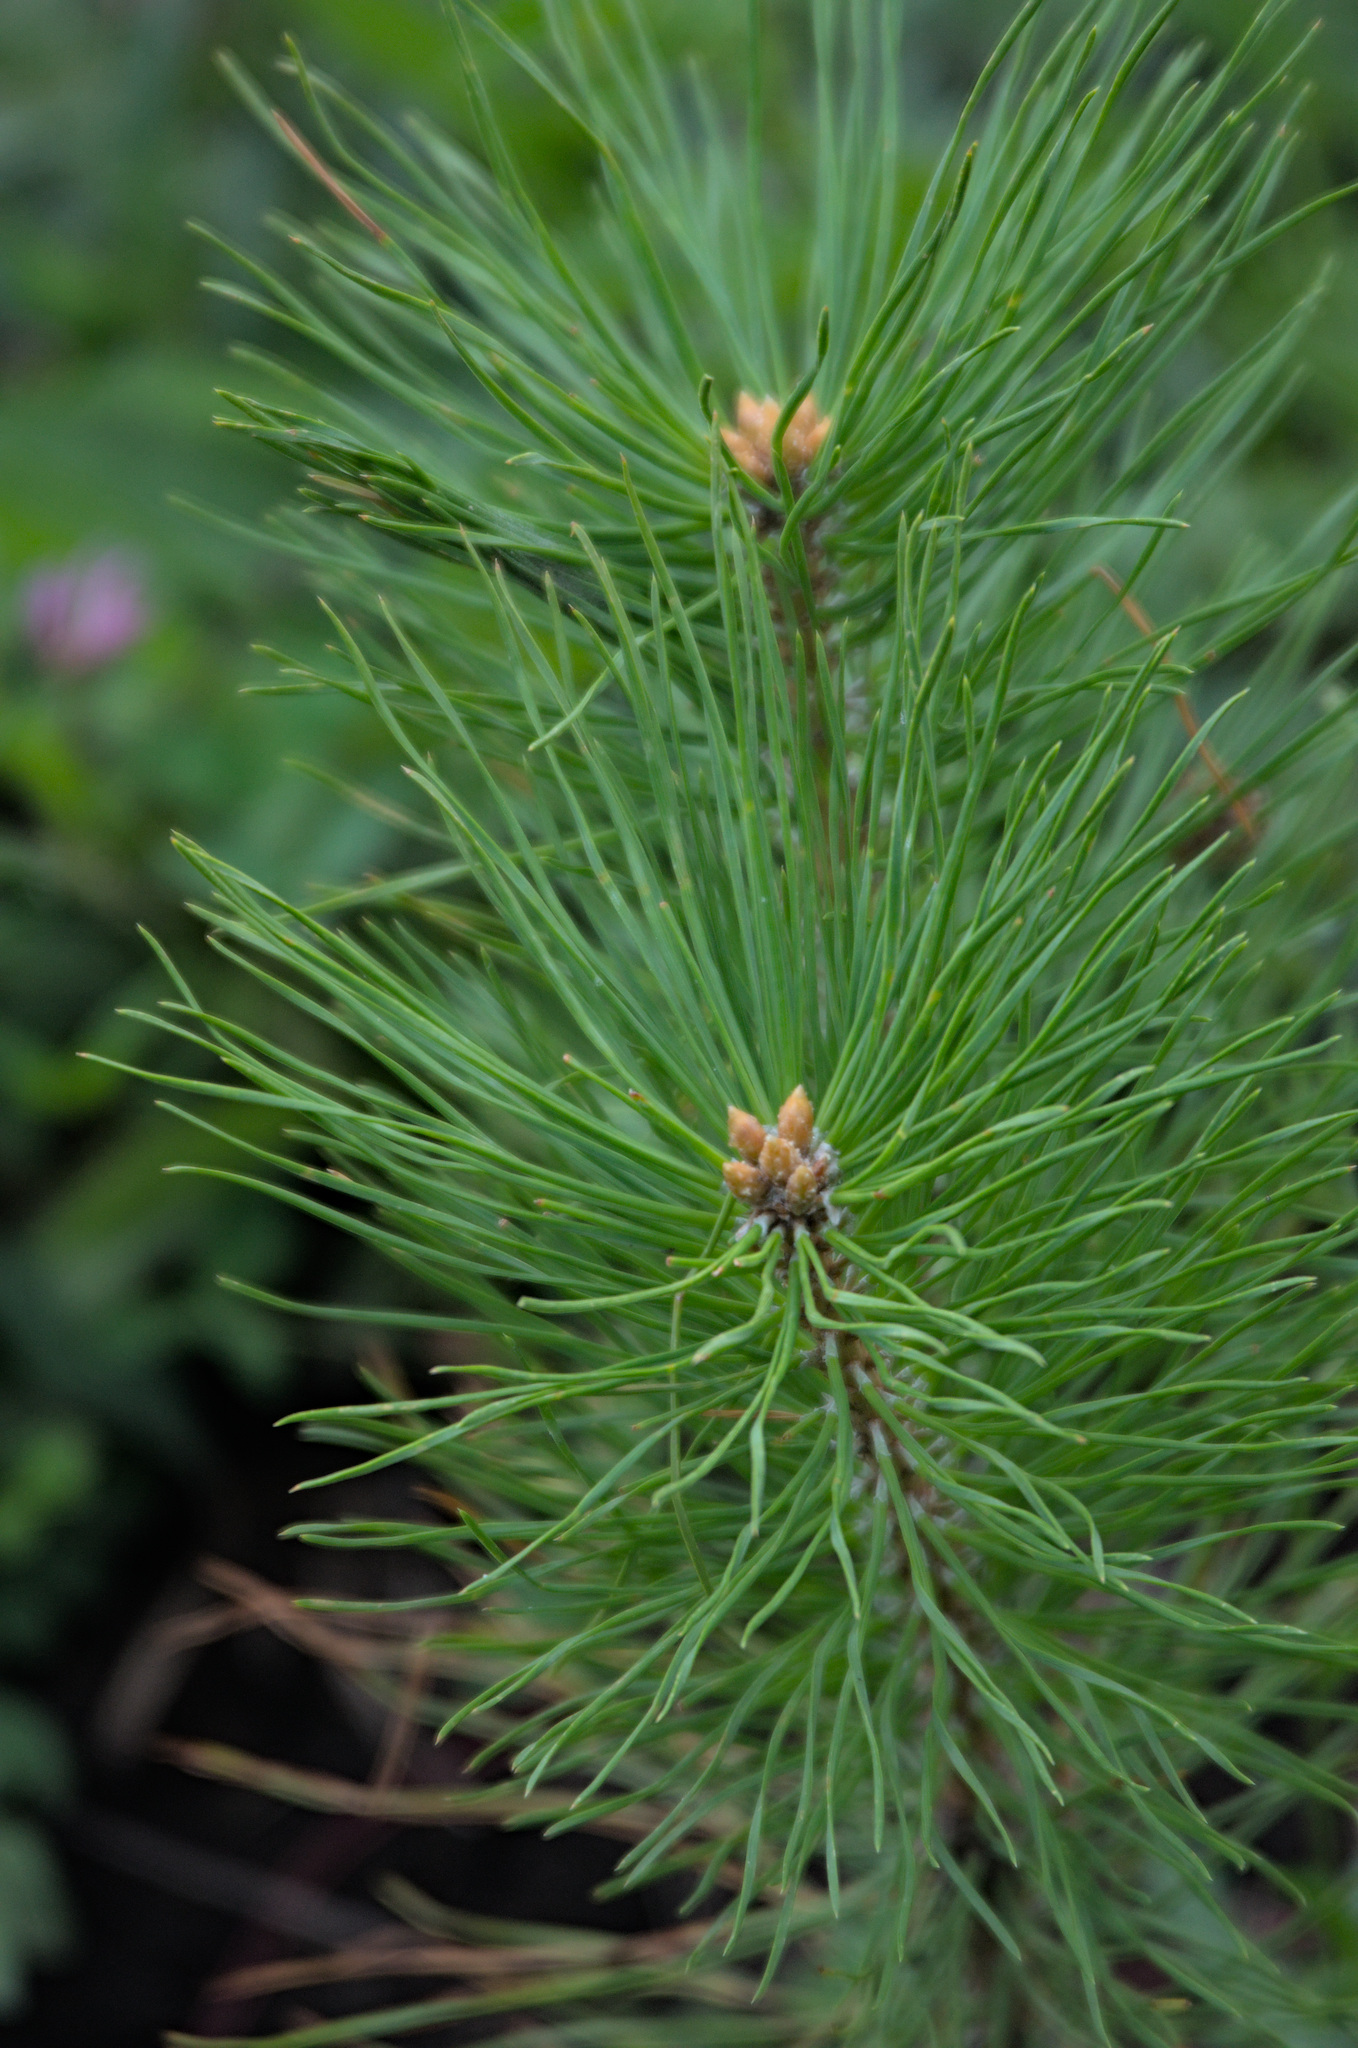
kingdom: Plantae
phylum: Tracheophyta
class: Pinopsida
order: Pinales
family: Pinaceae
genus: Pinus
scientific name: Pinus sylvestris
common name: Scots pine
